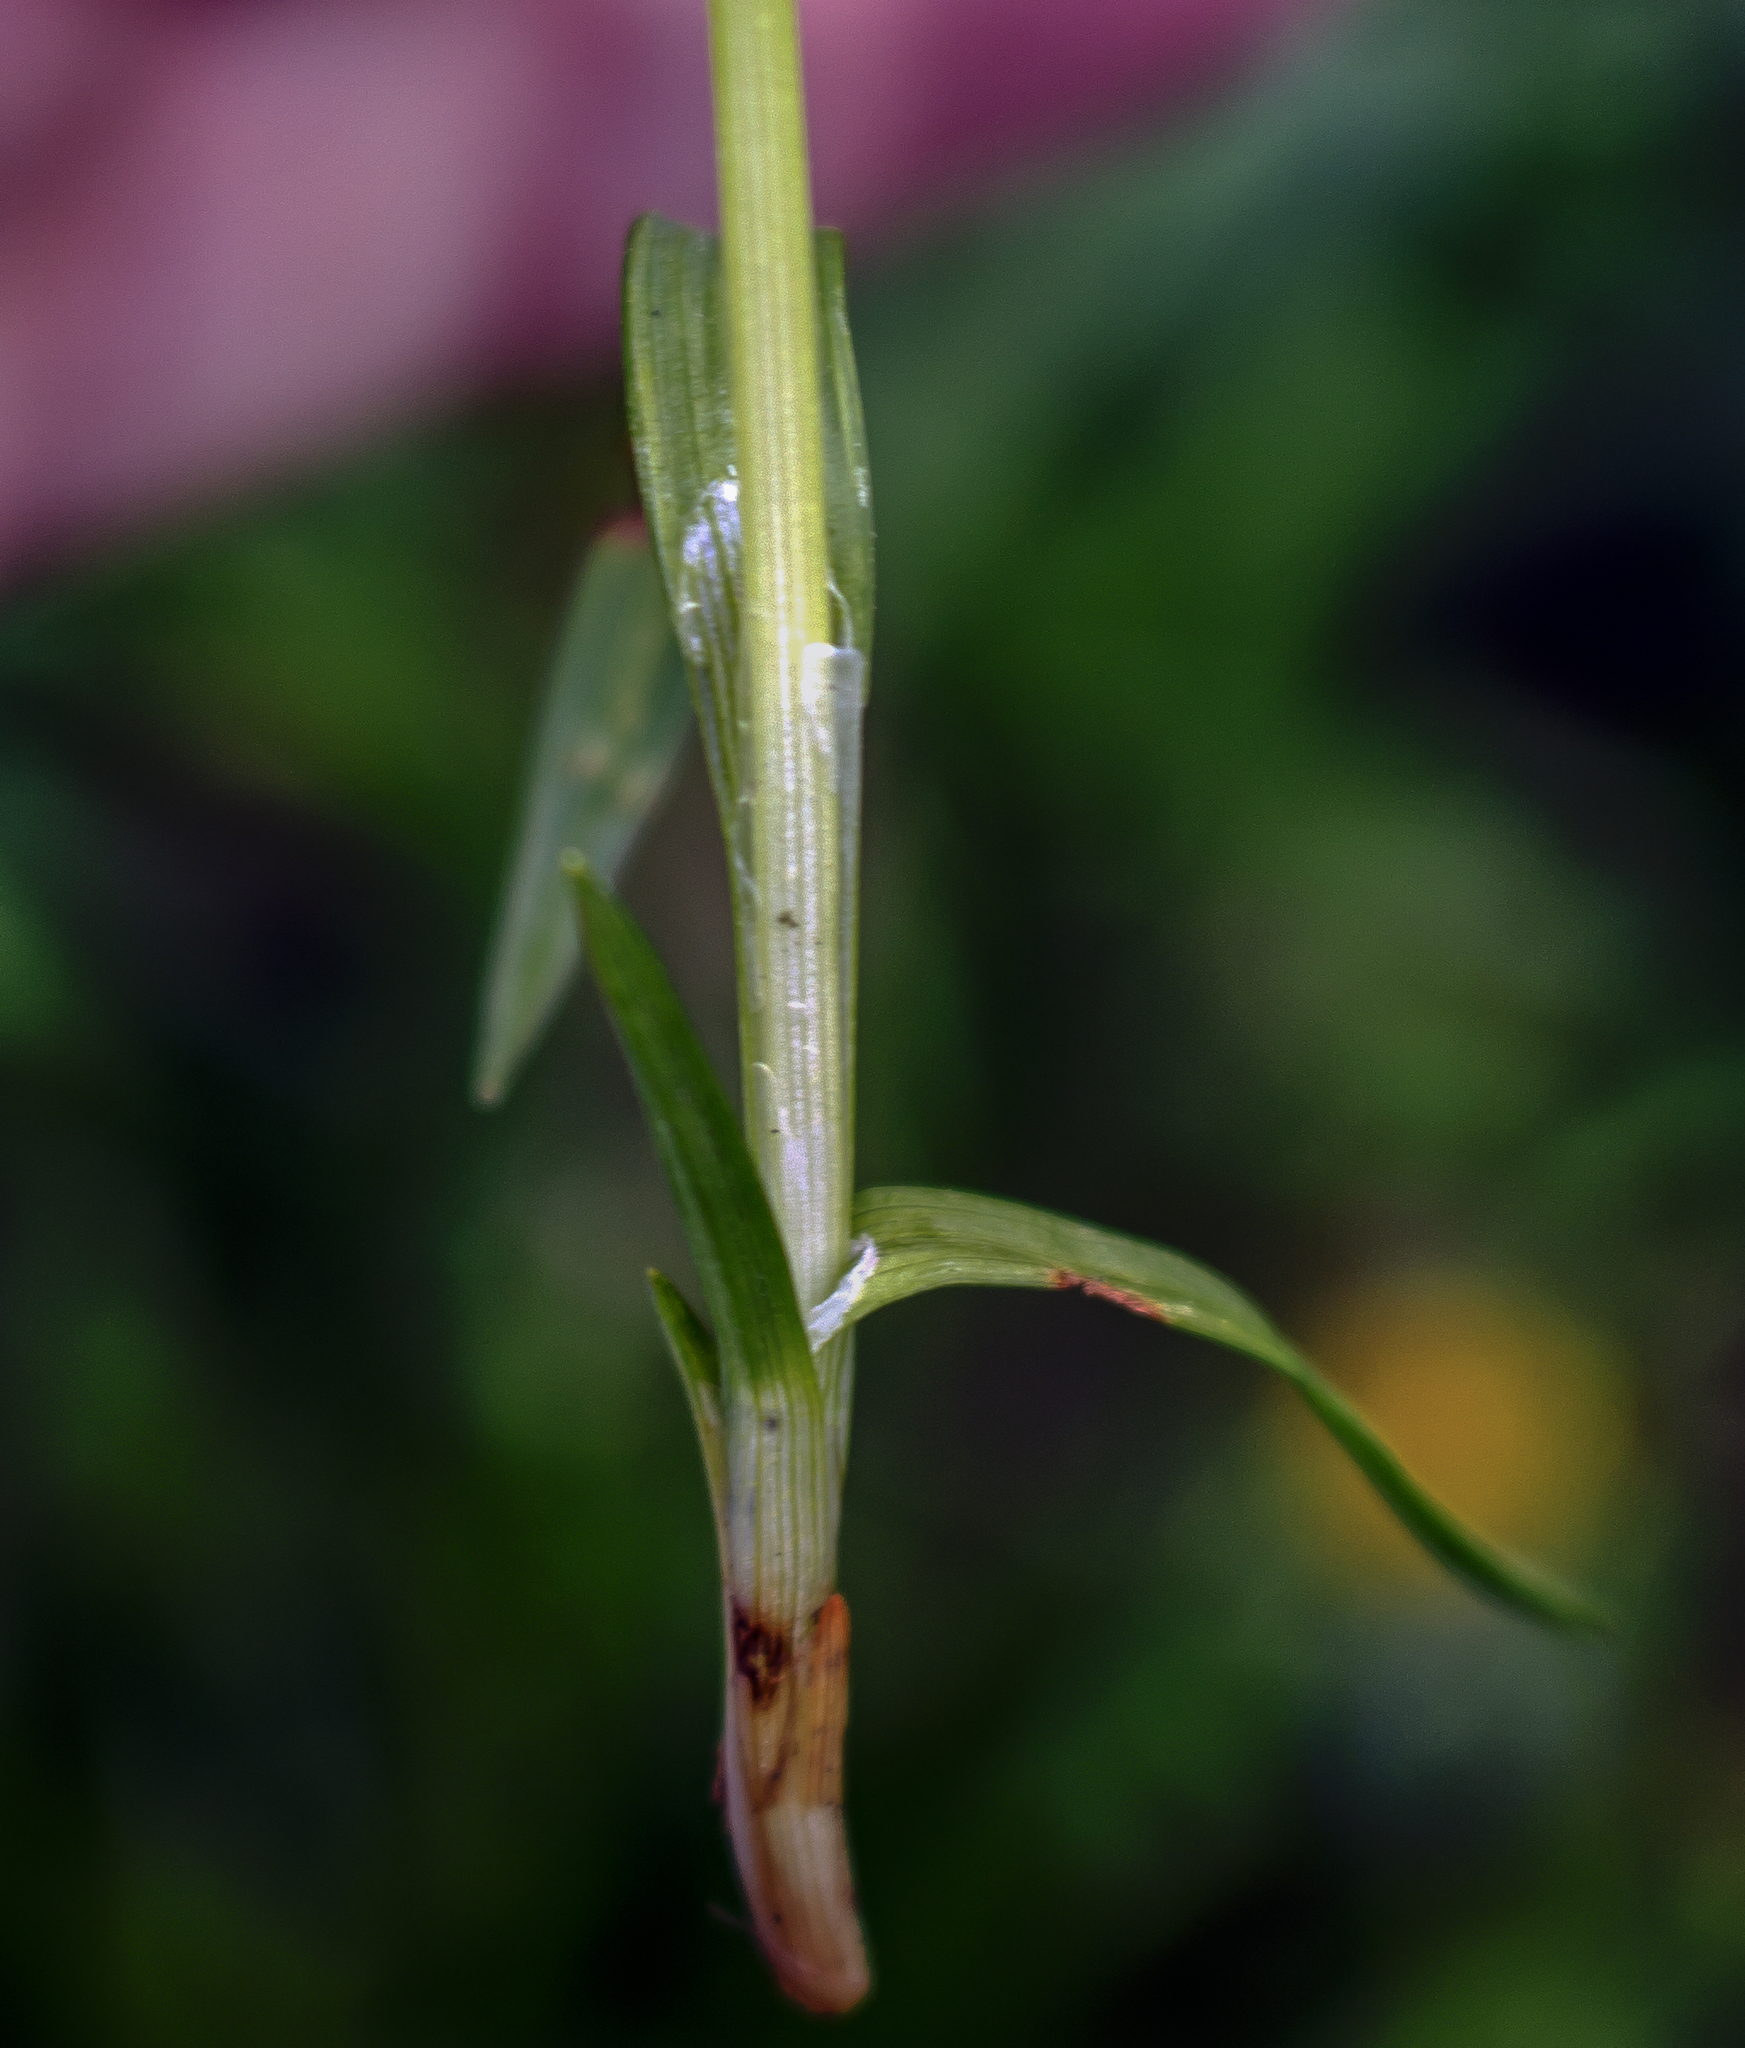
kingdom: Plantae
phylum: Tracheophyta
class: Liliopsida
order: Poales
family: Cyperaceae
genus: Carex
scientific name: Carex blanda
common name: Bland sedge
